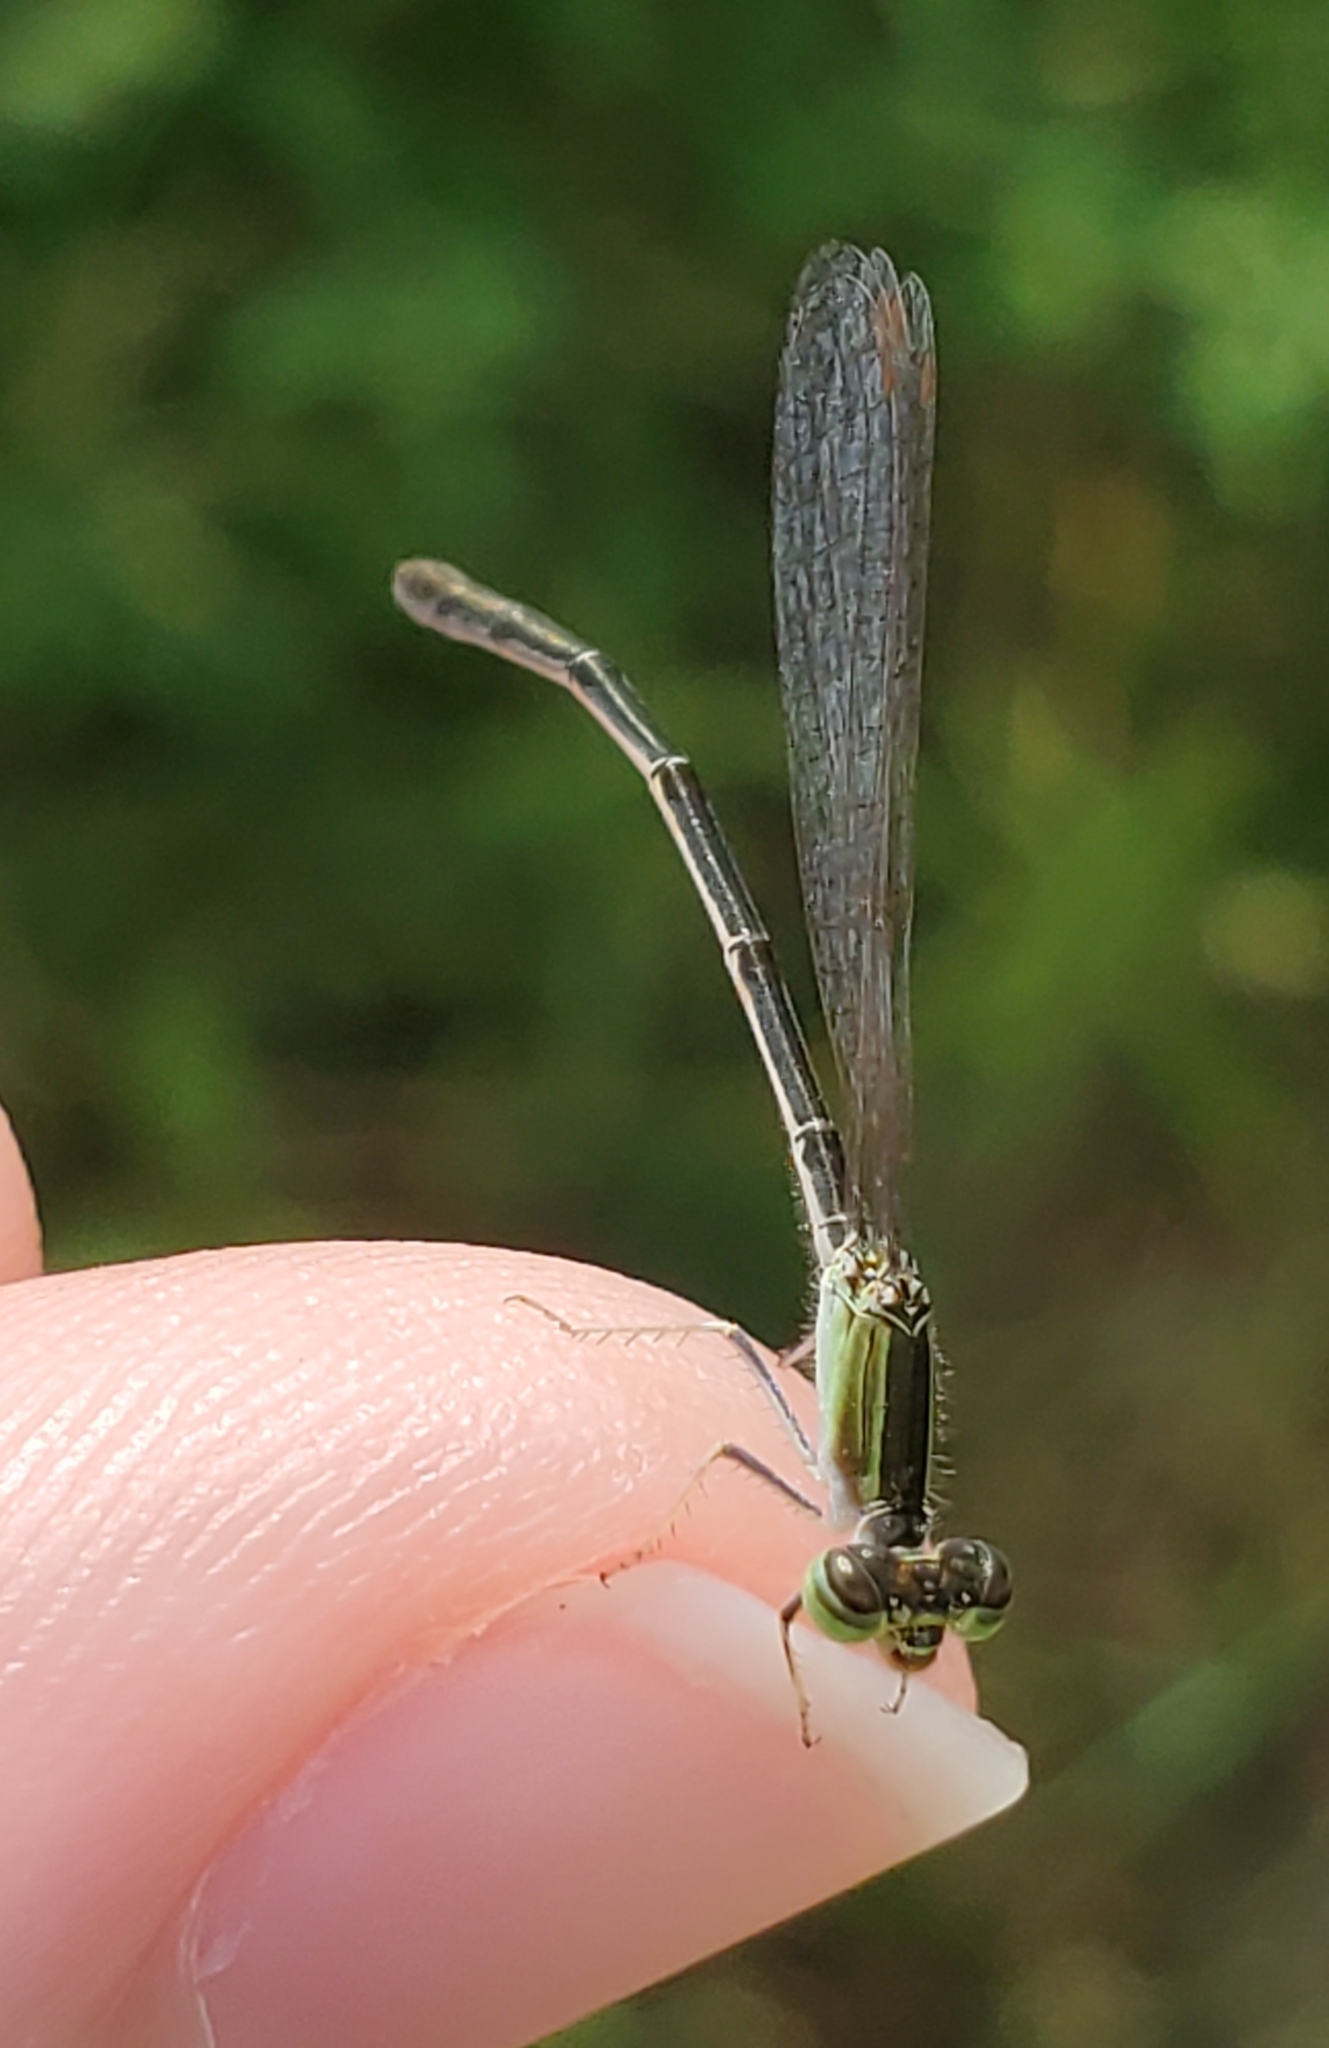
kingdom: Animalia
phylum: Arthropoda
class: Insecta
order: Odonata
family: Coenagrionidae
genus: Ischnura
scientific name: Ischnura hastata
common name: Citrine forktail
